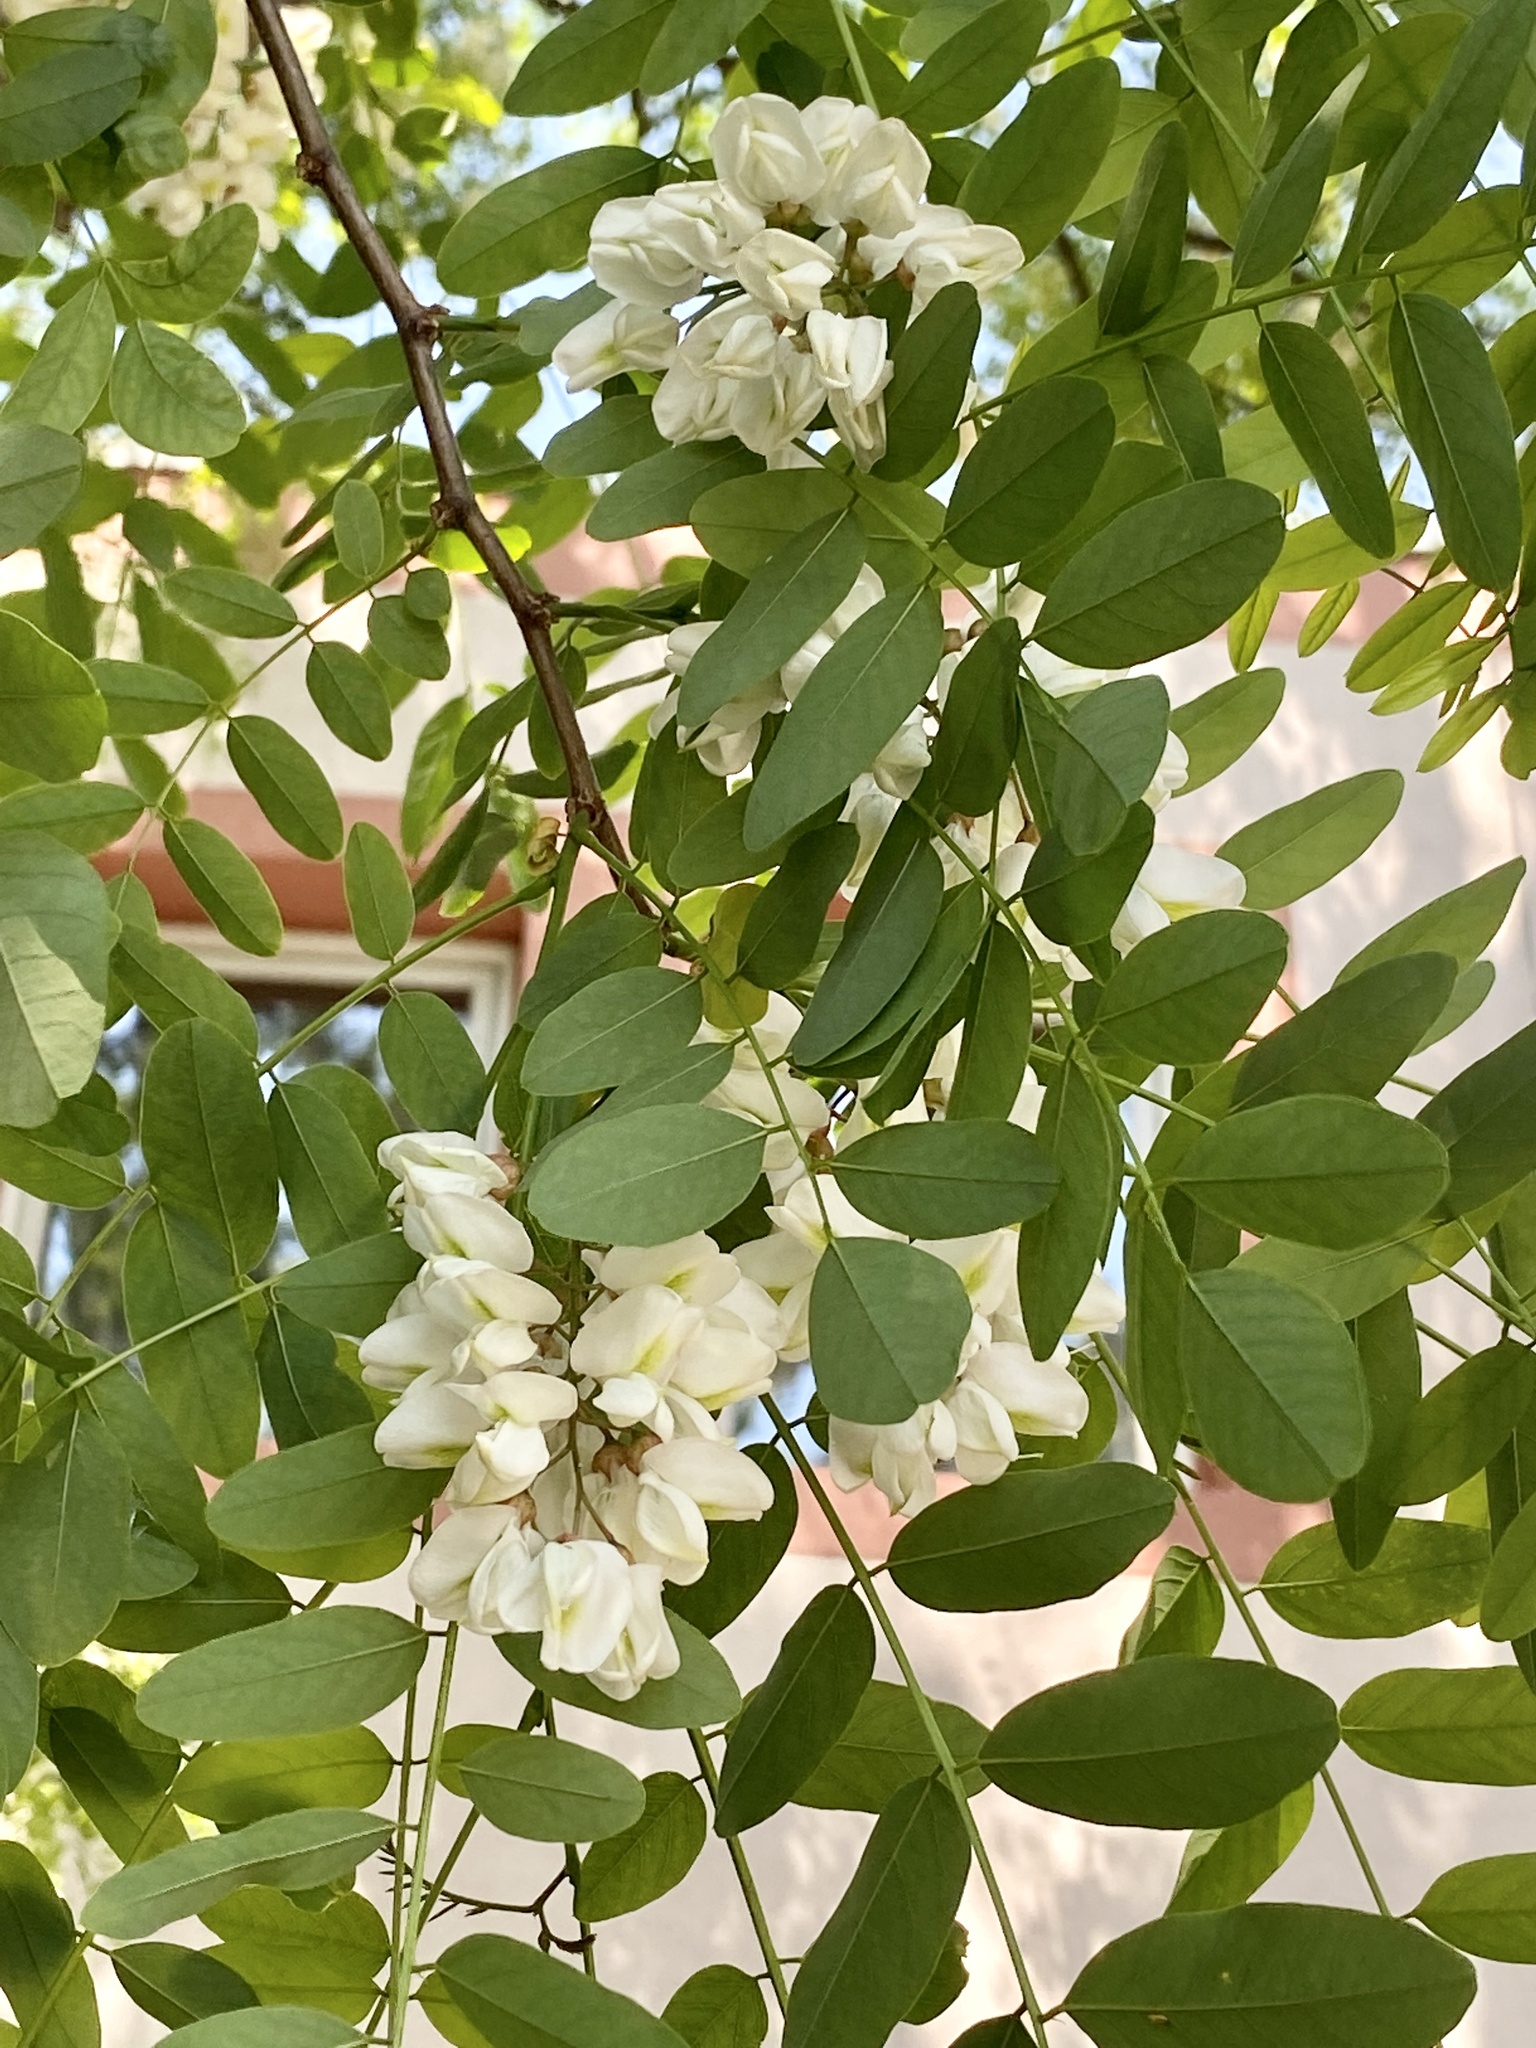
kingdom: Plantae
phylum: Tracheophyta
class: Magnoliopsida
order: Fabales
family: Fabaceae
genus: Robinia
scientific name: Robinia pseudoacacia
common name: Black locust
